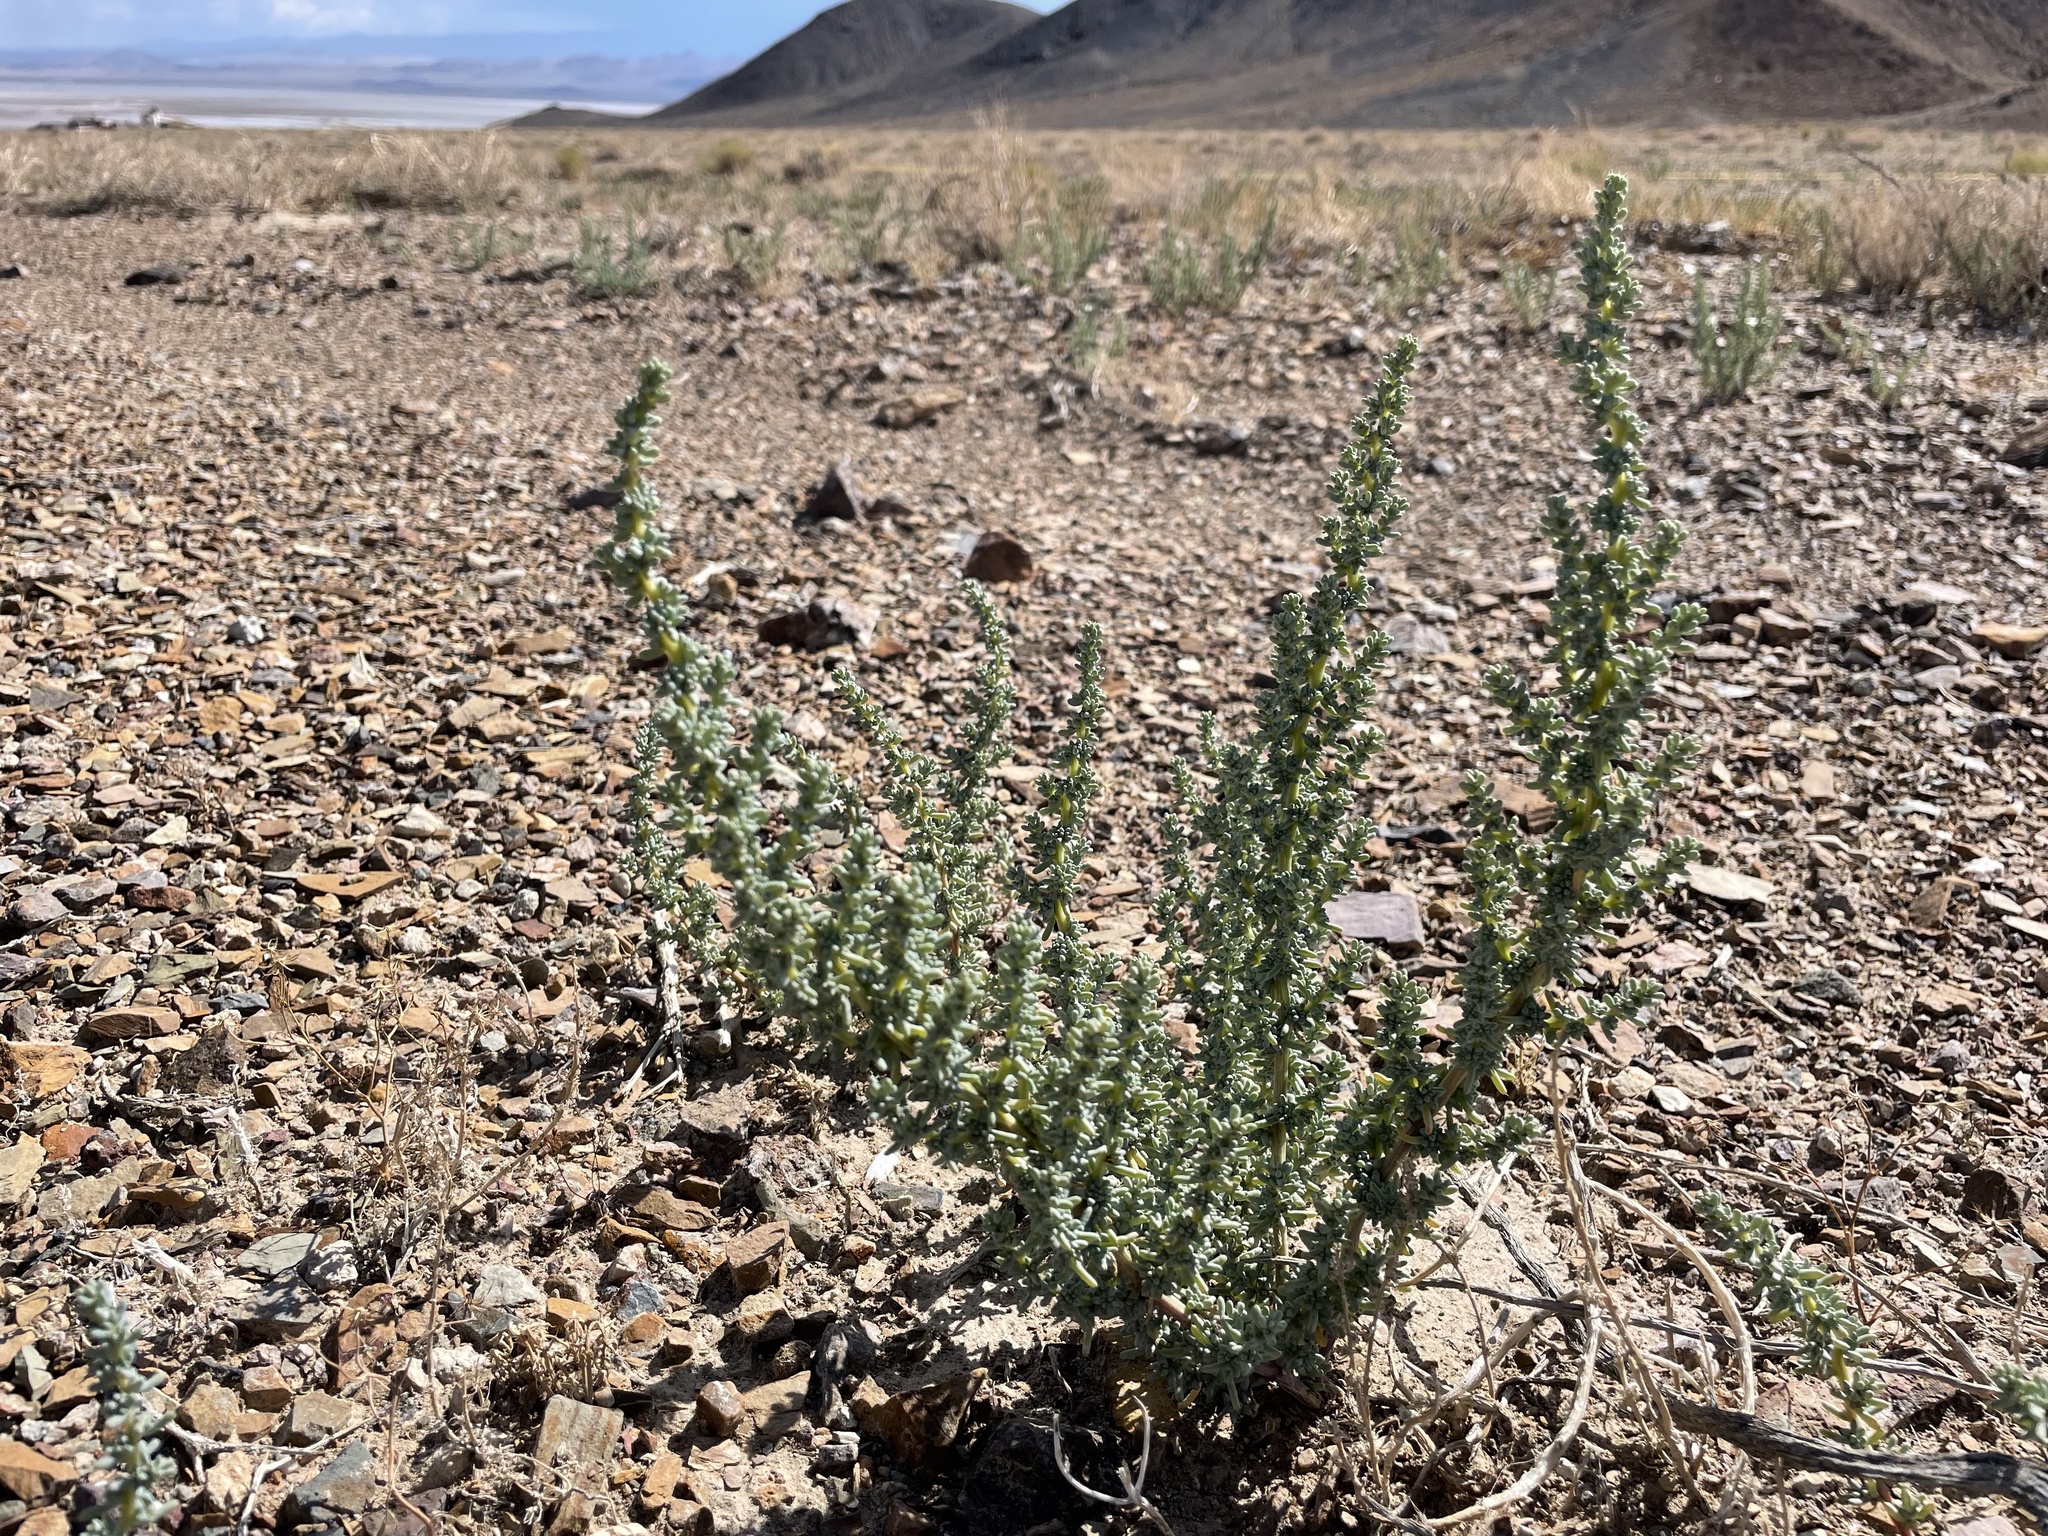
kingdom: Plantae
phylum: Tracheophyta
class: Magnoliopsida
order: Caryophyllales
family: Amaranthaceae
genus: Halogeton
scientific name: Halogeton glomeratus
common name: Saltlover
